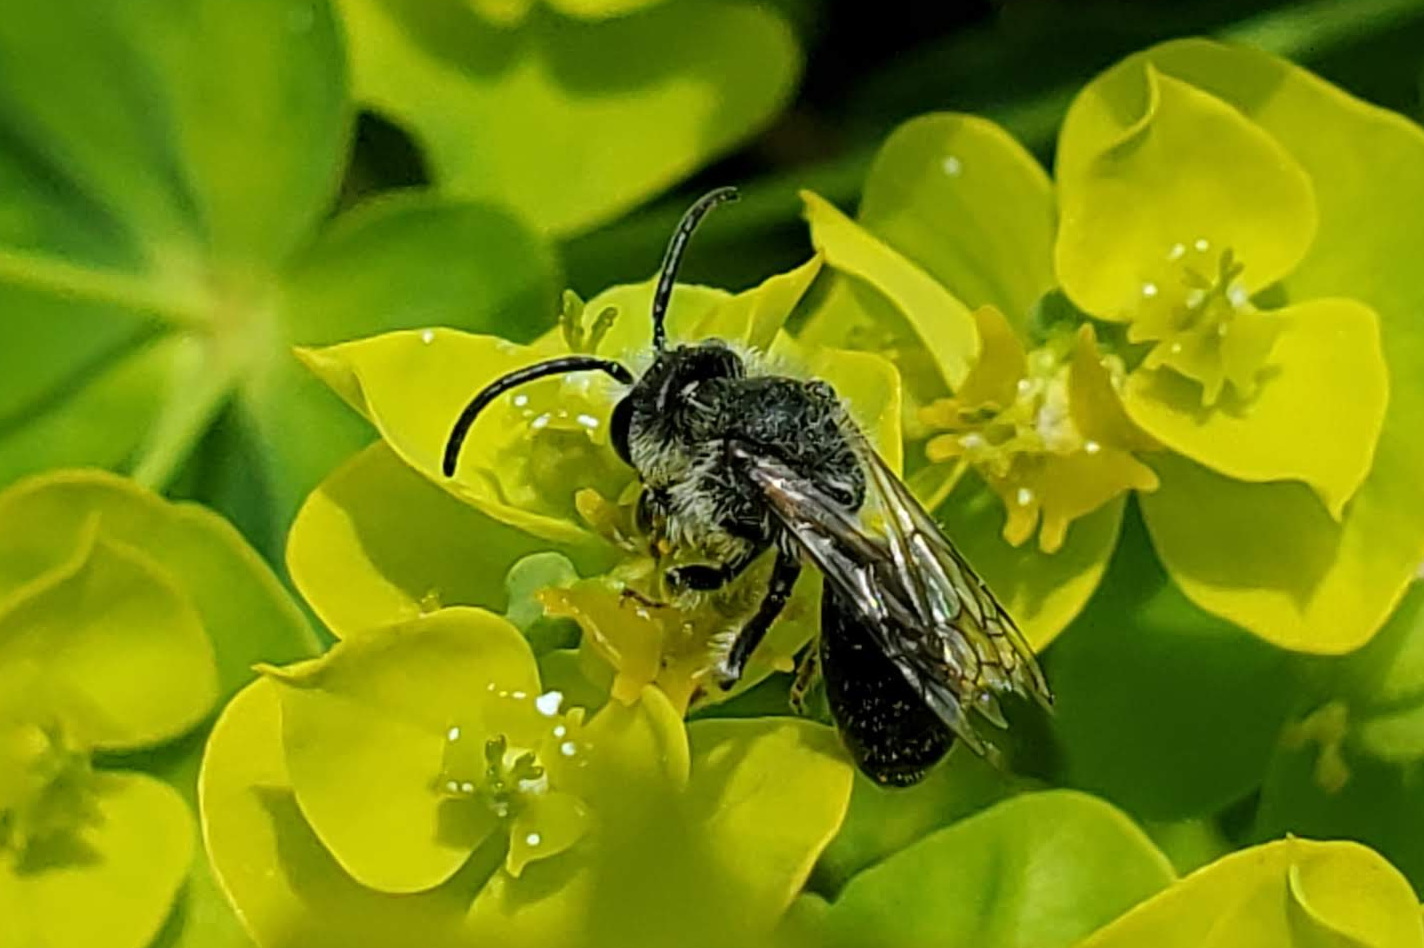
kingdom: Animalia
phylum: Arthropoda
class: Insecta
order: Hymenoptera
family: Andrenidae
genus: Andrena
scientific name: Andrena
